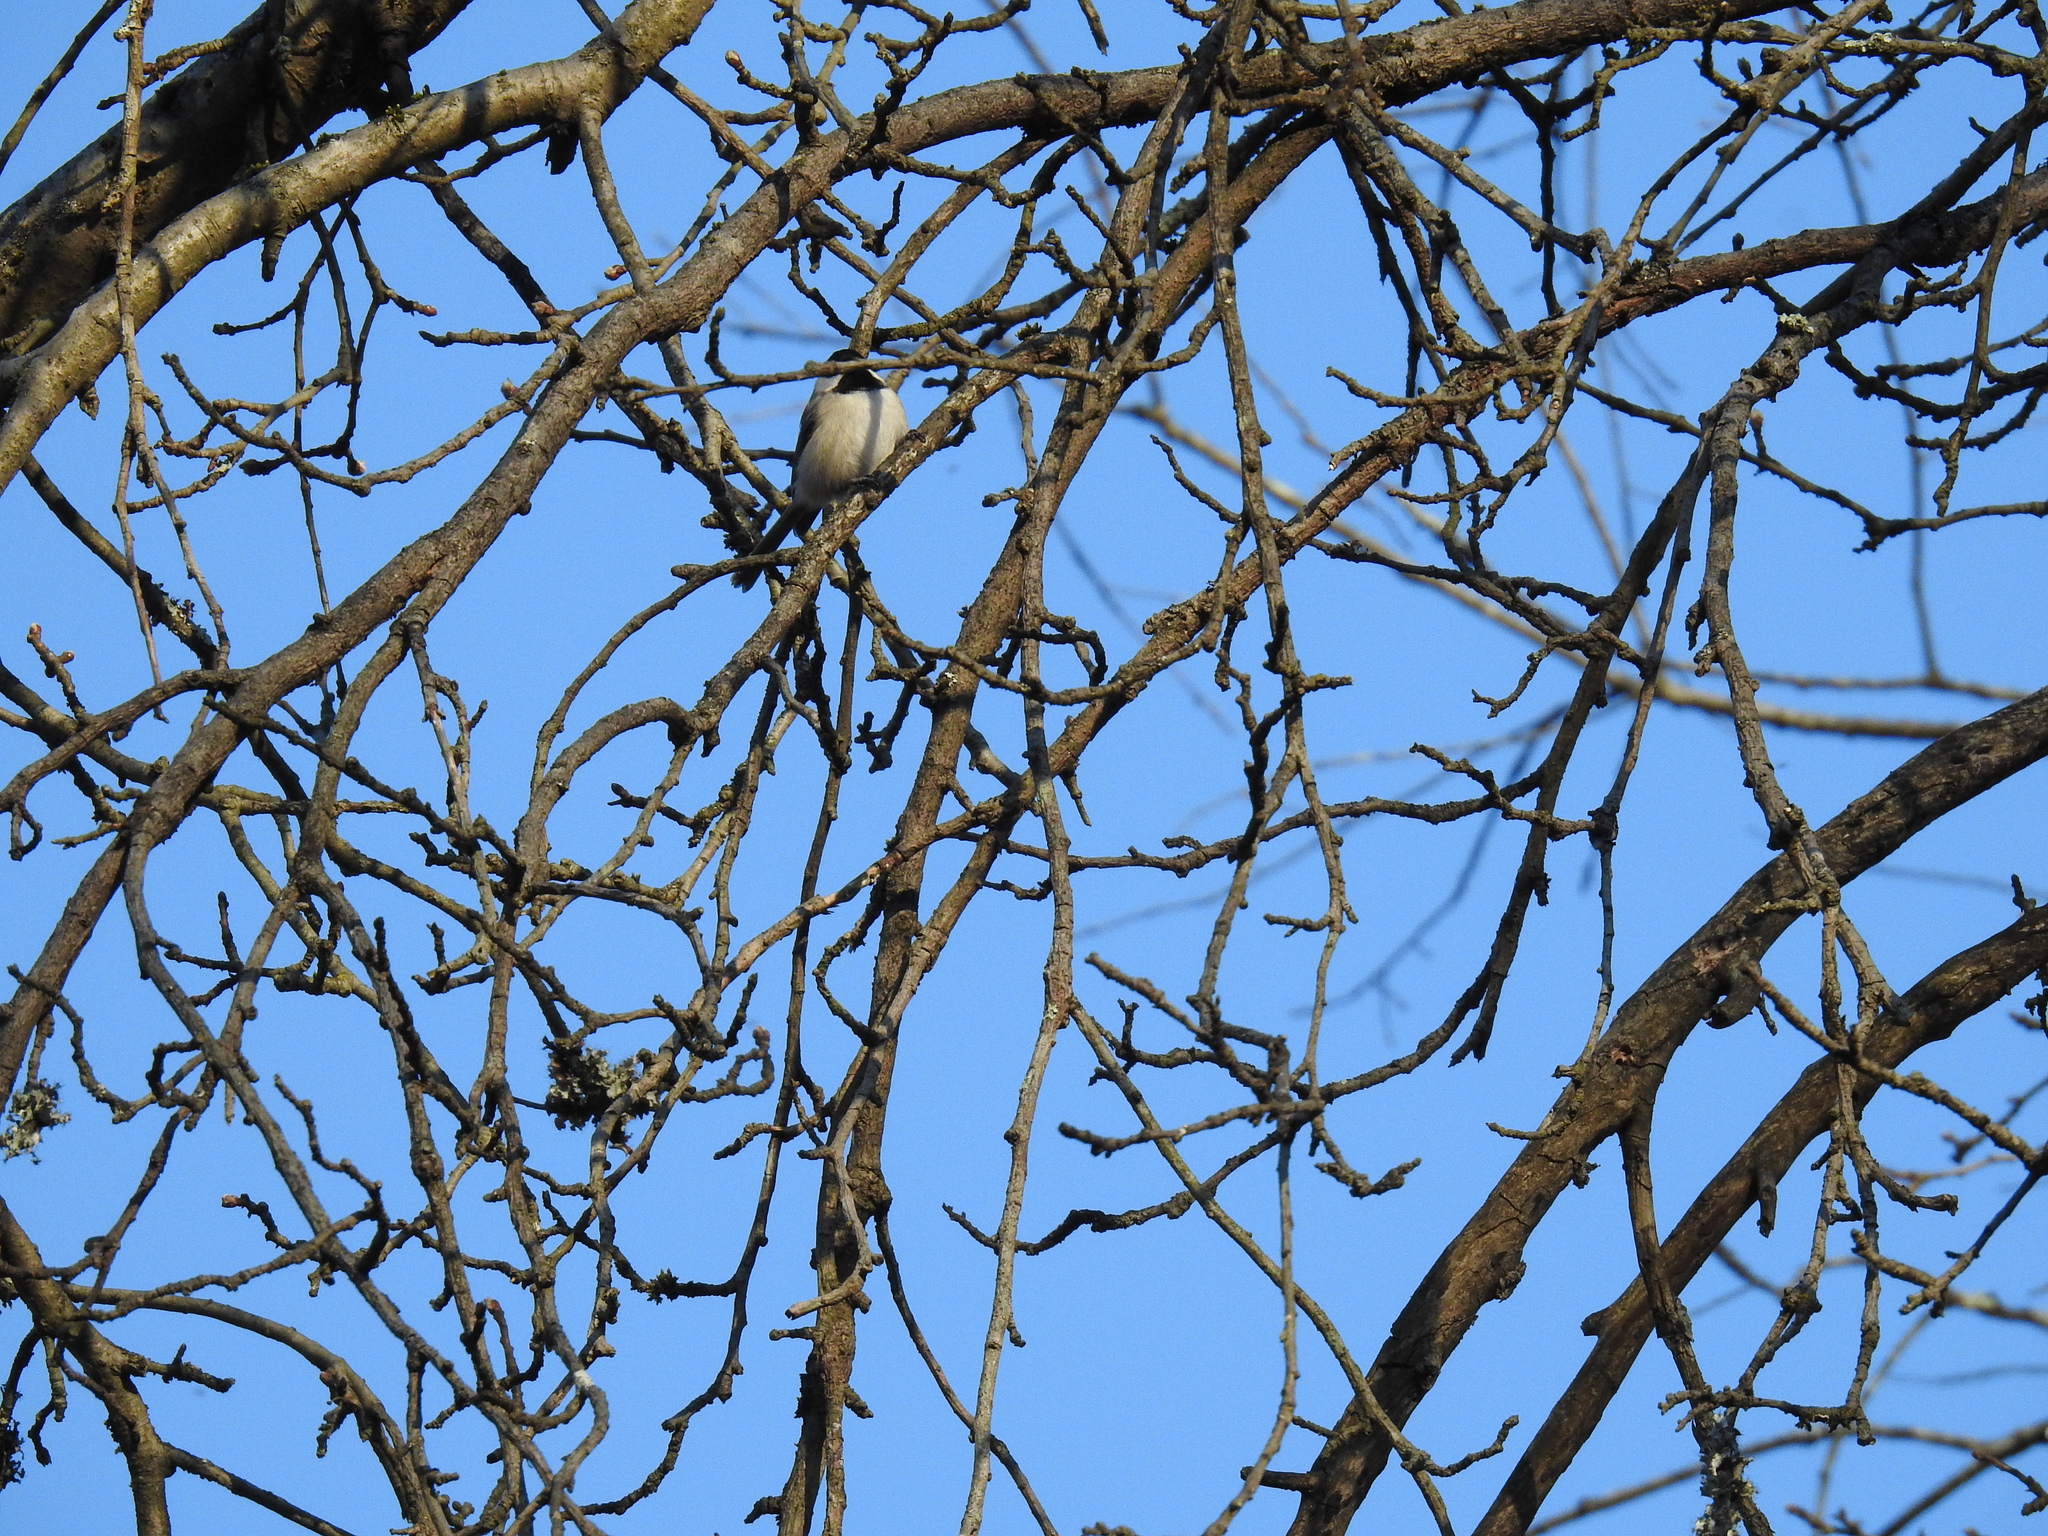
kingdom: Animalia
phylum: Chordata
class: Aves
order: Passeriformes
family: Paridae
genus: Poecile
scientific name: Poecile atricapillus
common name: Black-capped chickadee
